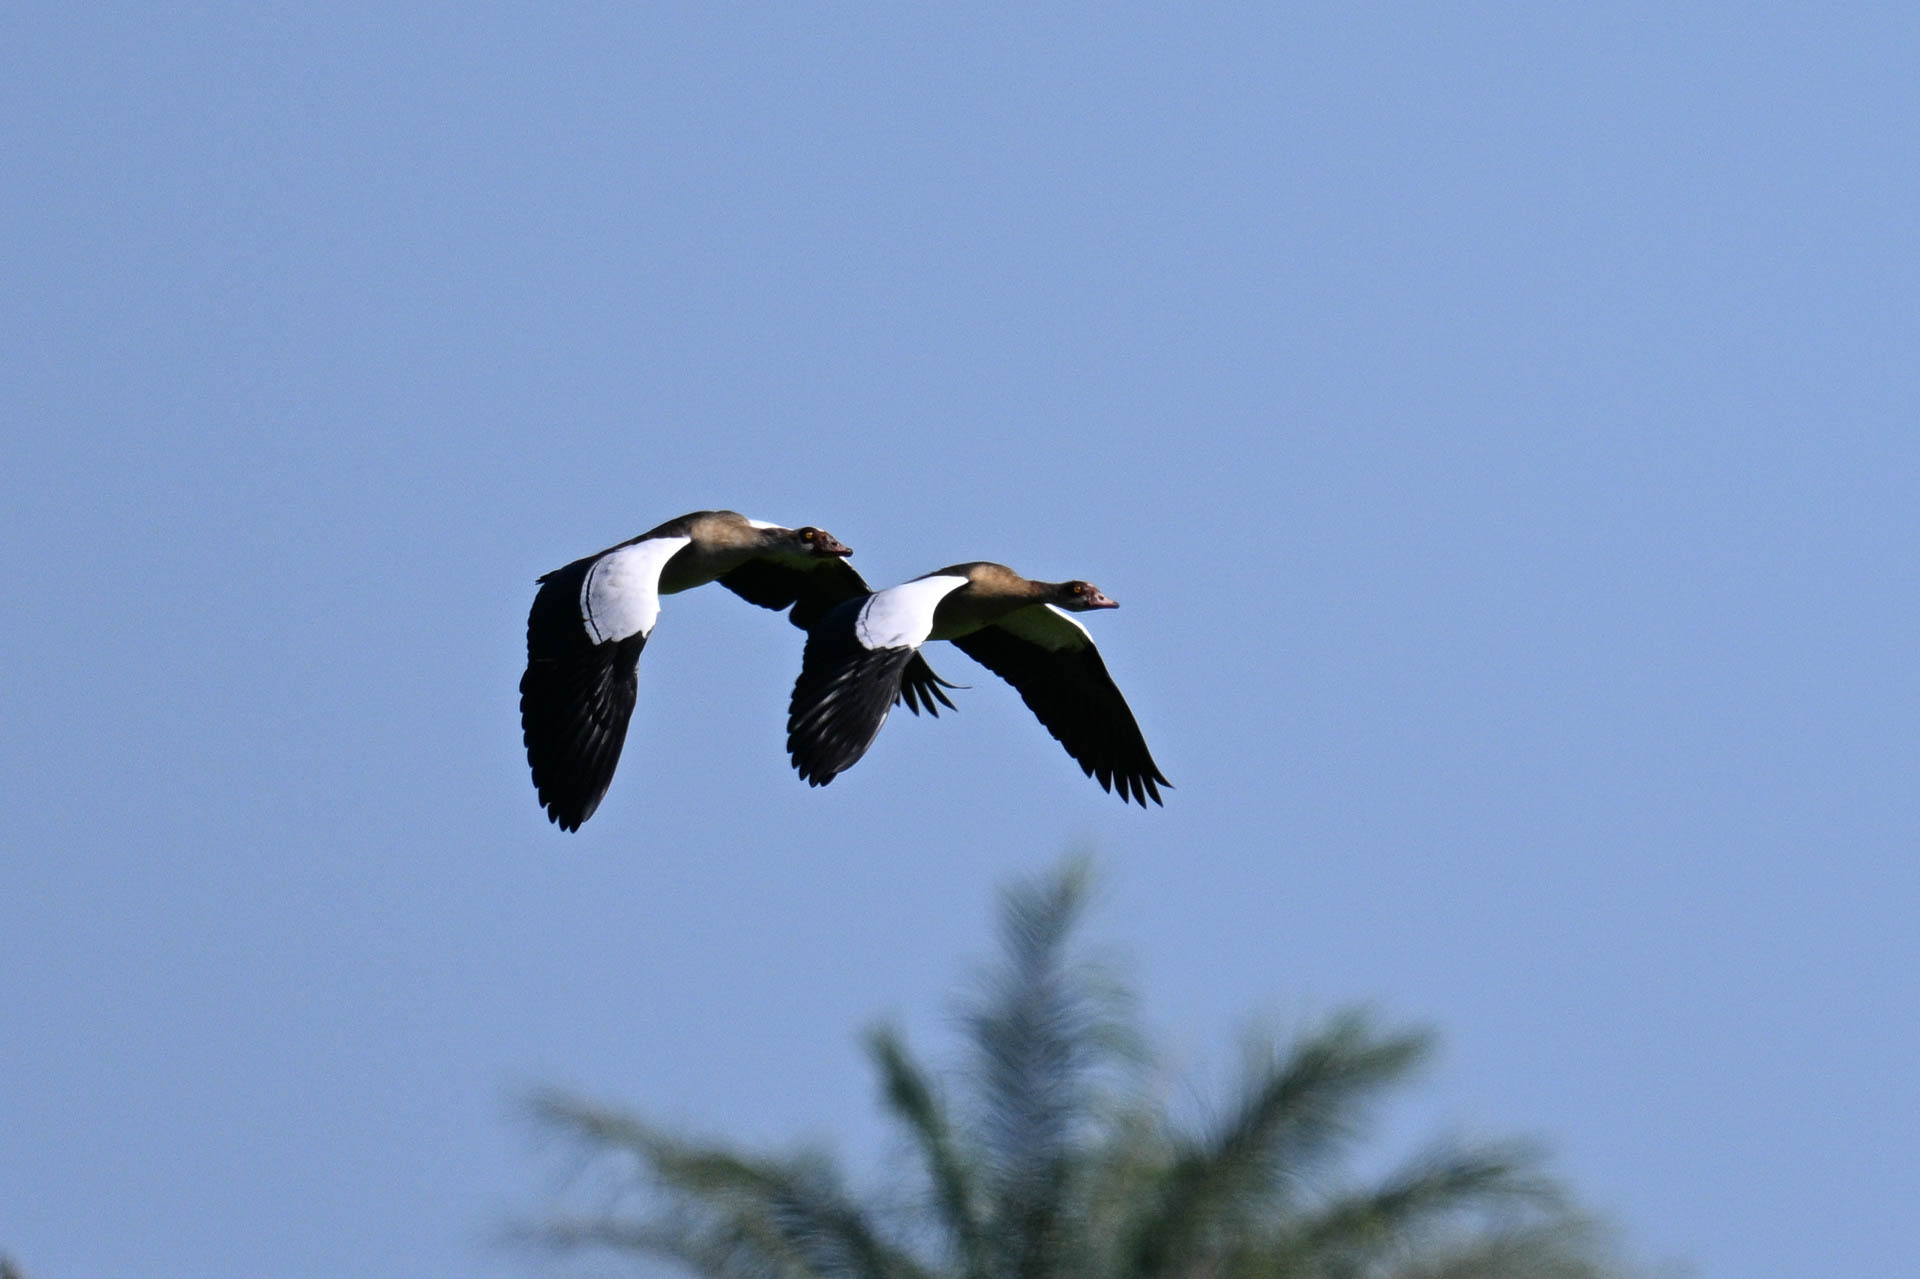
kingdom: Animalia
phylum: Chordata
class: Aves
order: Anseriformes
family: Anatidae
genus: Alopochen
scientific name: Alopochen aegyptiaca
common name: Egyptian goose
